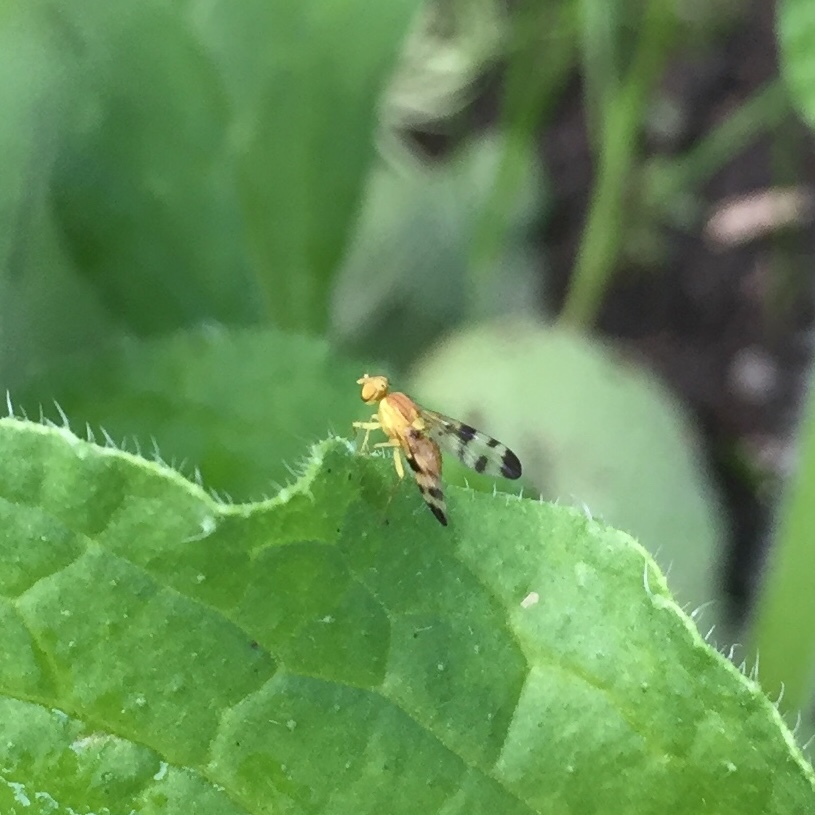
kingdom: Animalia
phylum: Arthropoda
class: Insecta
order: Diptera
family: Tephritidae
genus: Trypeta
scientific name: Trypeta zoe
